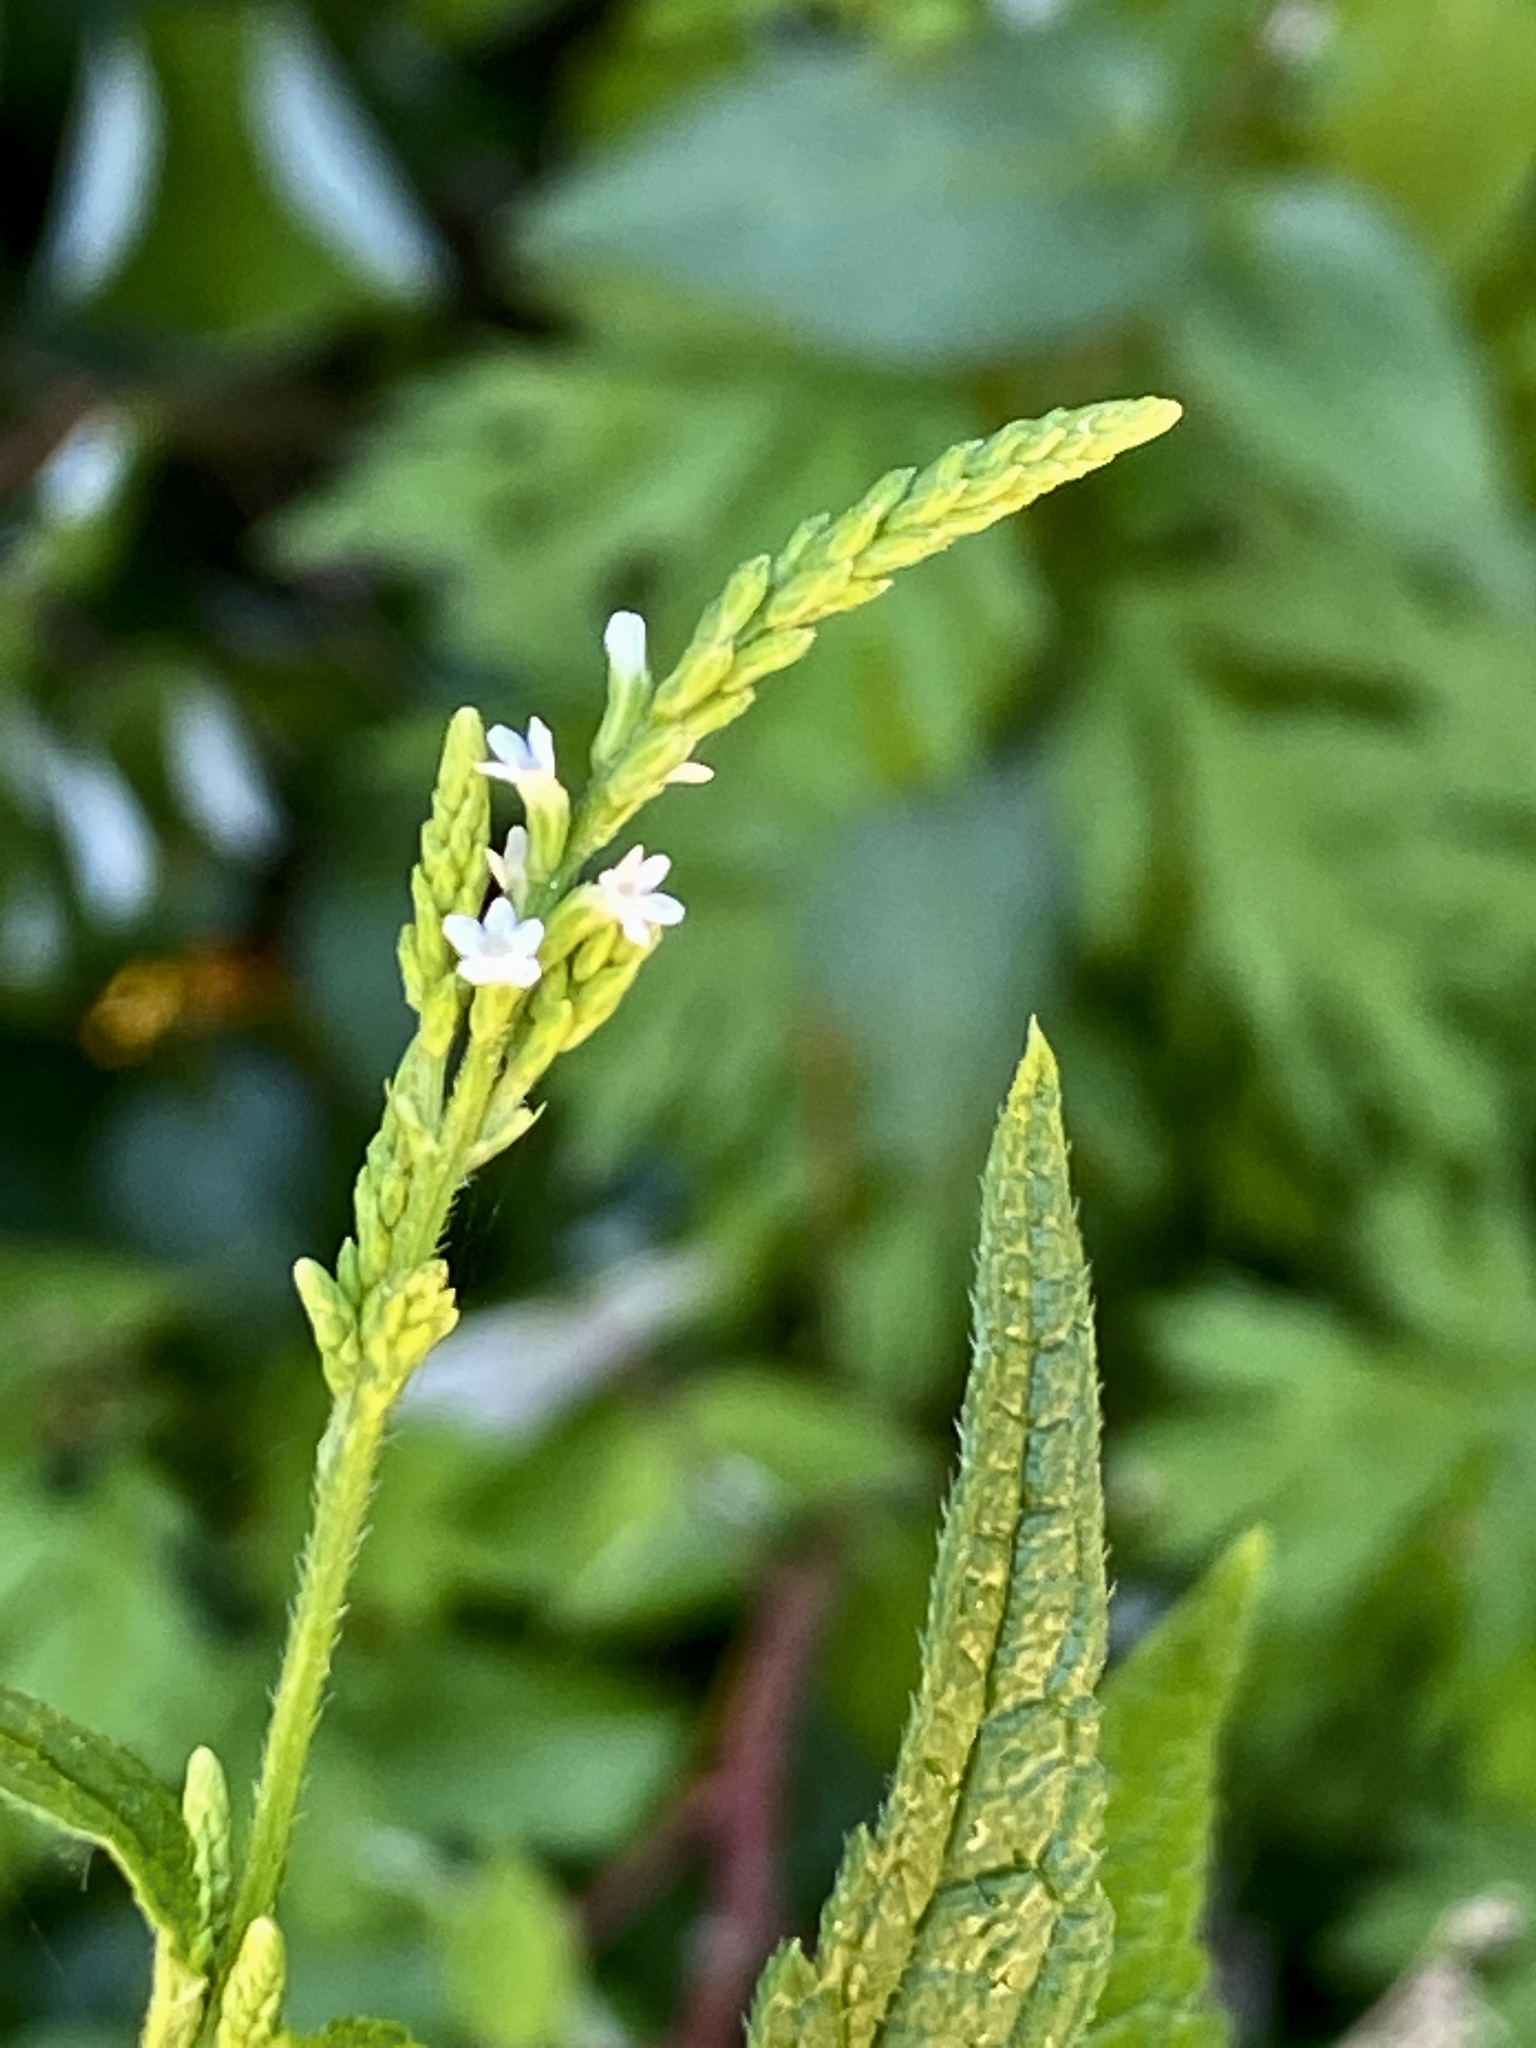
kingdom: Plantae
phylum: Tracheophyta
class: Magnoliopsida
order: Lamiales
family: Verbenaceae
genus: Verbena
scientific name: Verbena urticifolia
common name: Nettle-leaved vervain
